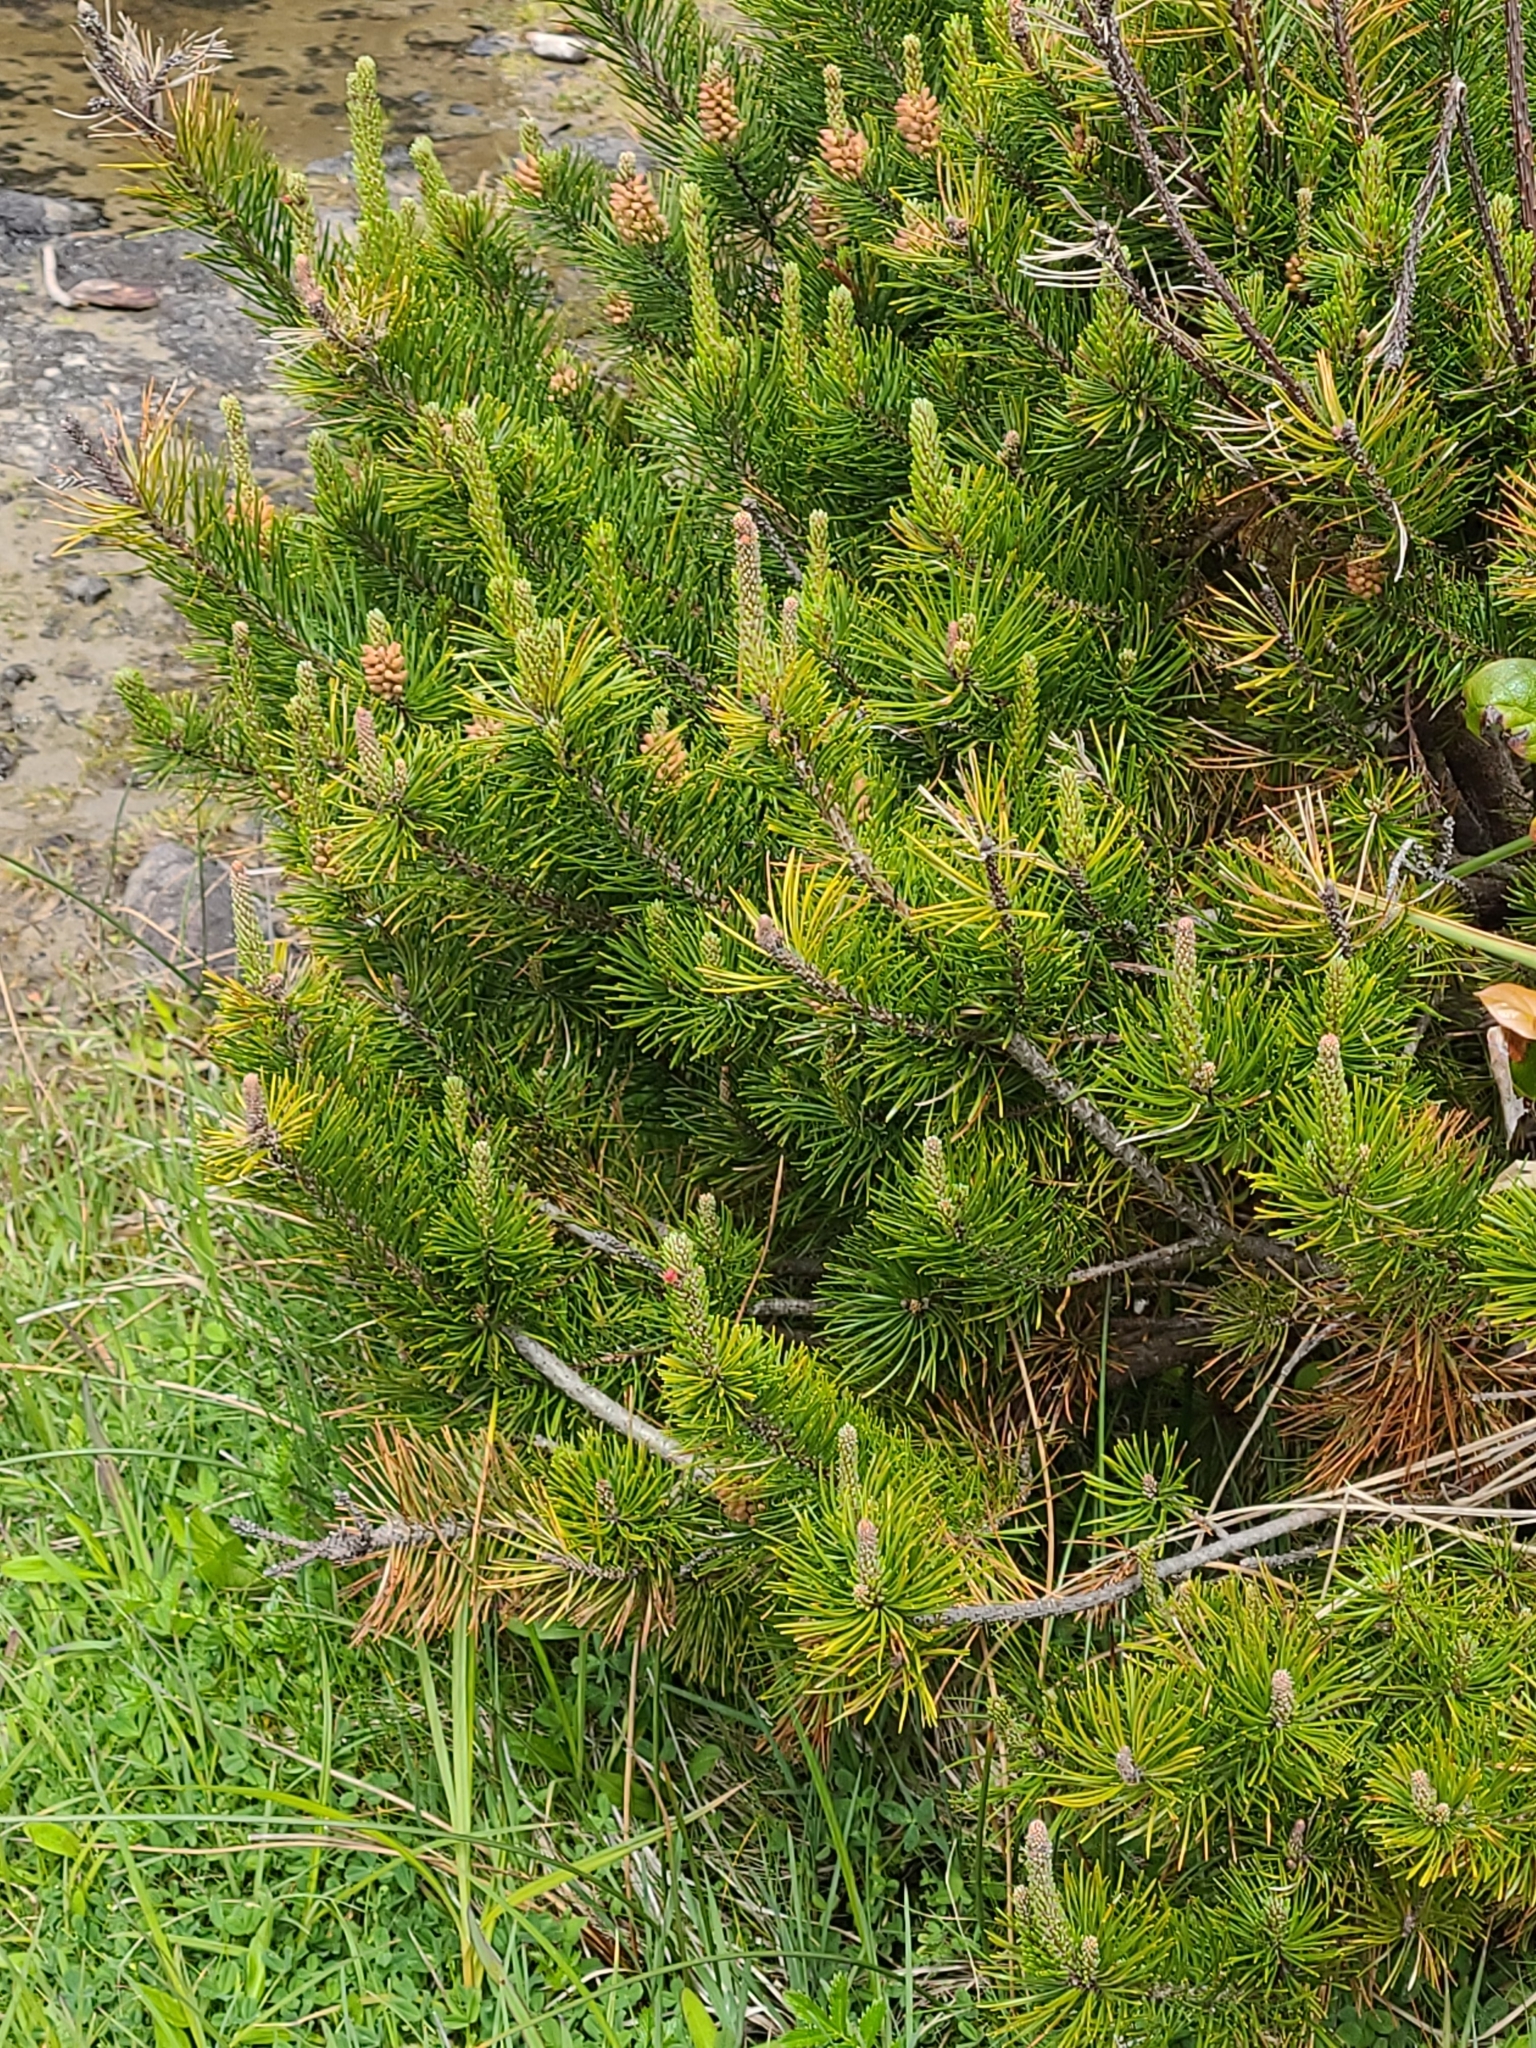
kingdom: Plantae
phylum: Tracheophyta
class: Pinopsida
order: Pinales
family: Pinaceae
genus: Pinus
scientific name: Pinus contorta
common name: Lodgepole pine
